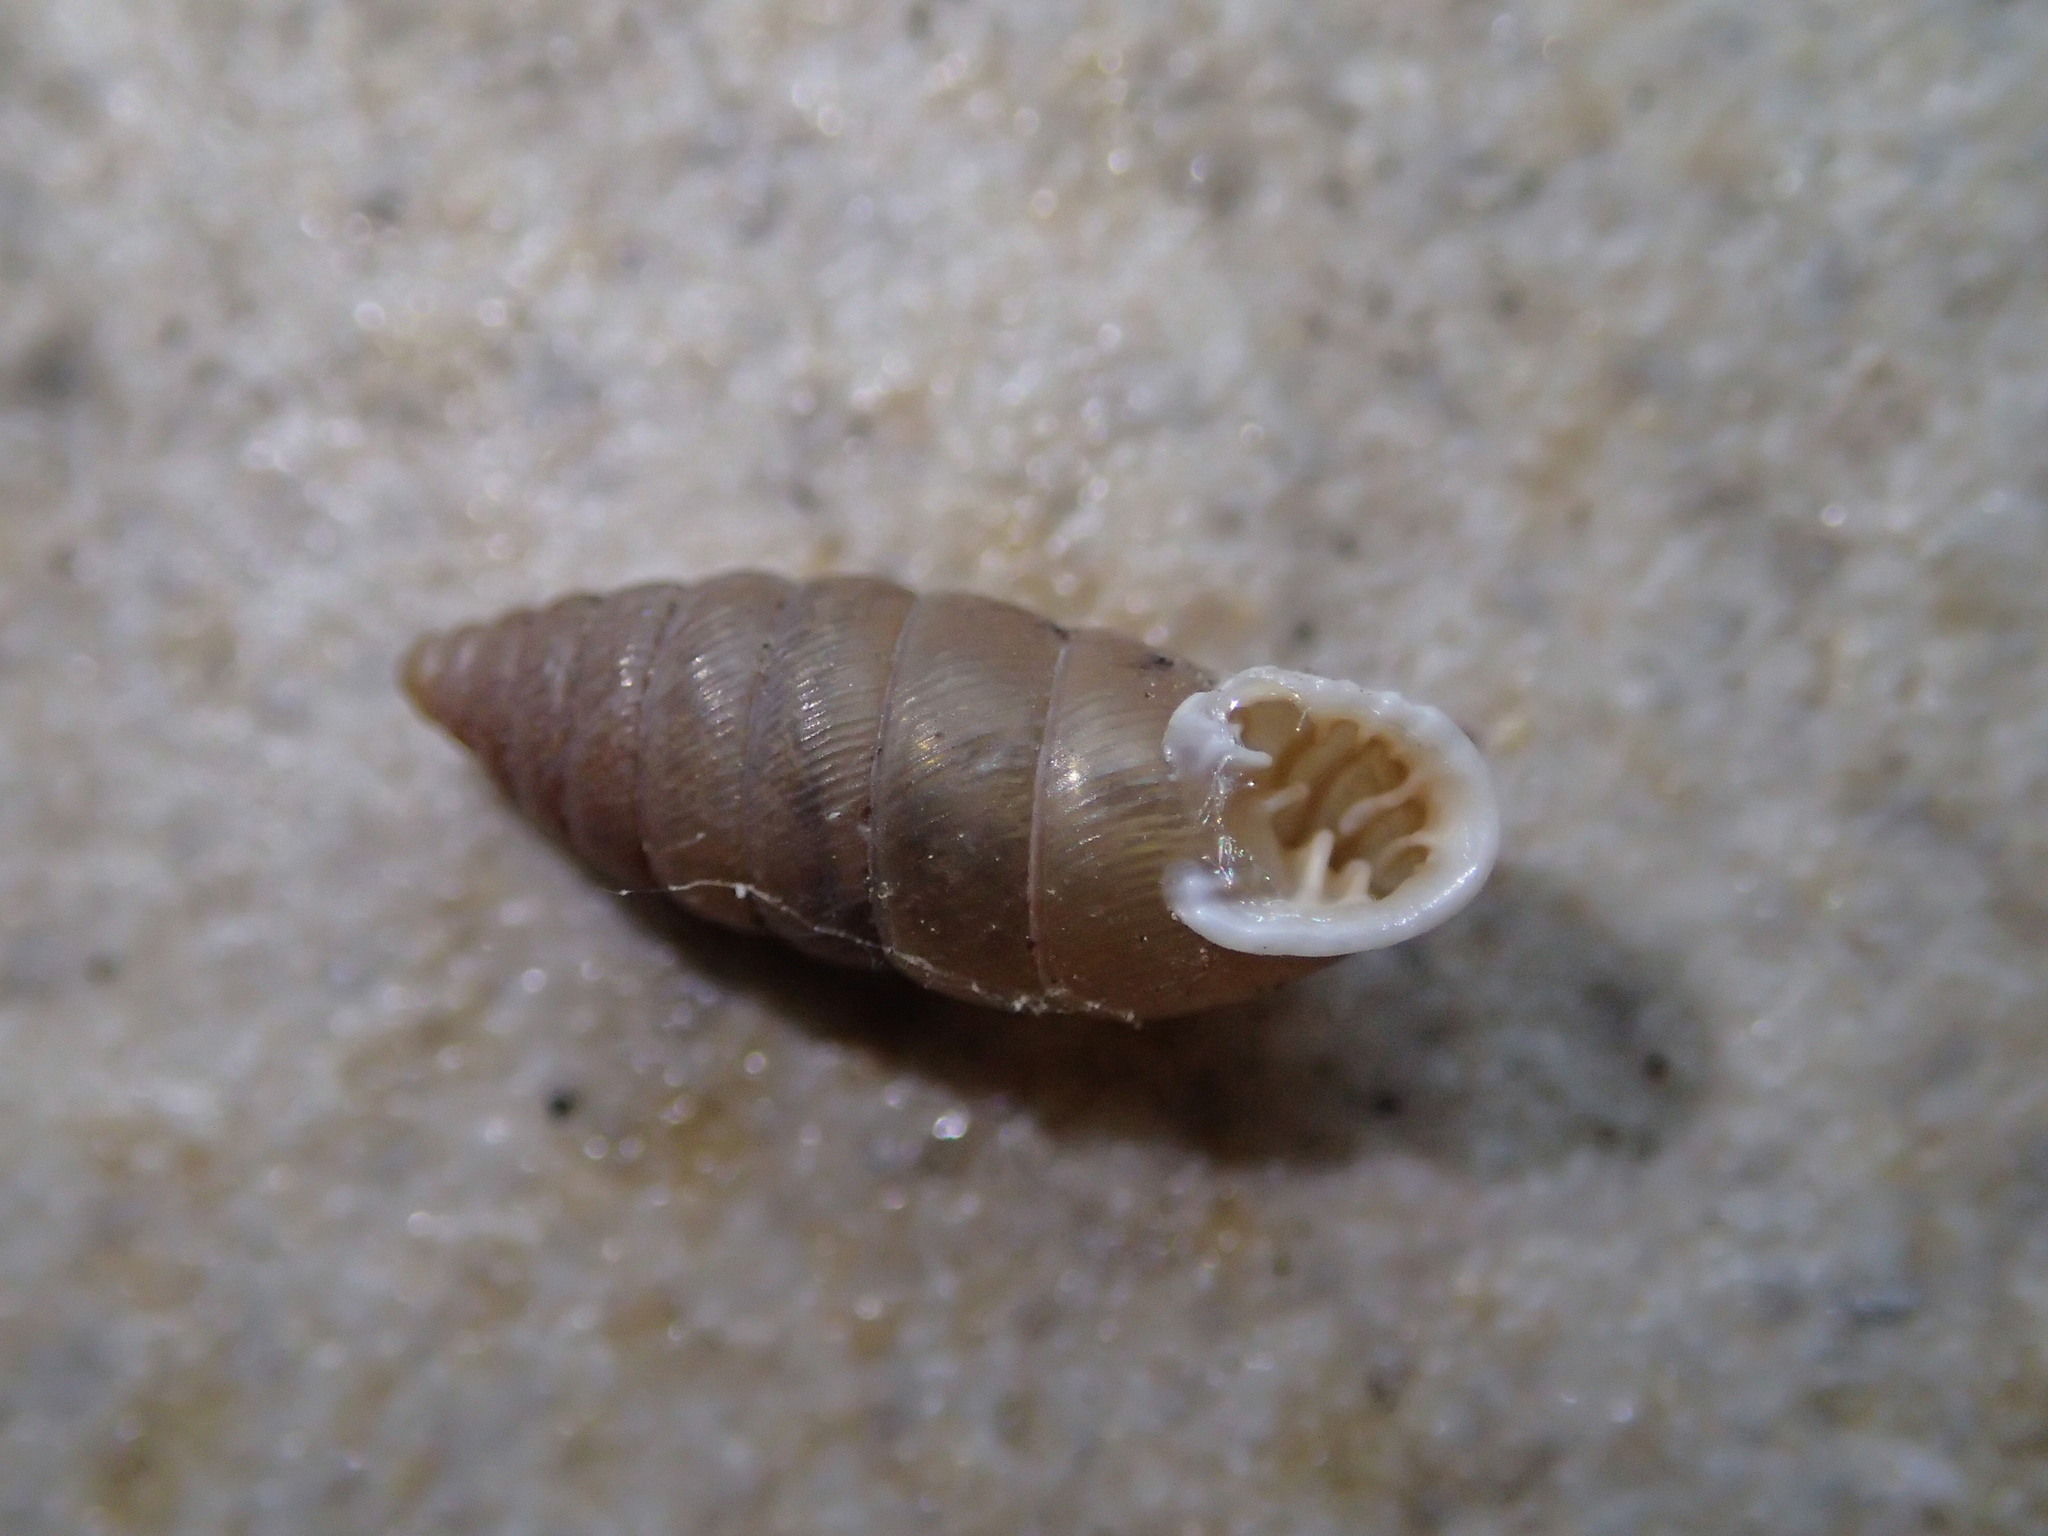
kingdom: Animalia
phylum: Mollusca
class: Gastropoda
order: Stylommatophora
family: Chondrinidae
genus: Granaria
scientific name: Granaria frumentum
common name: An air-breathing land snail
